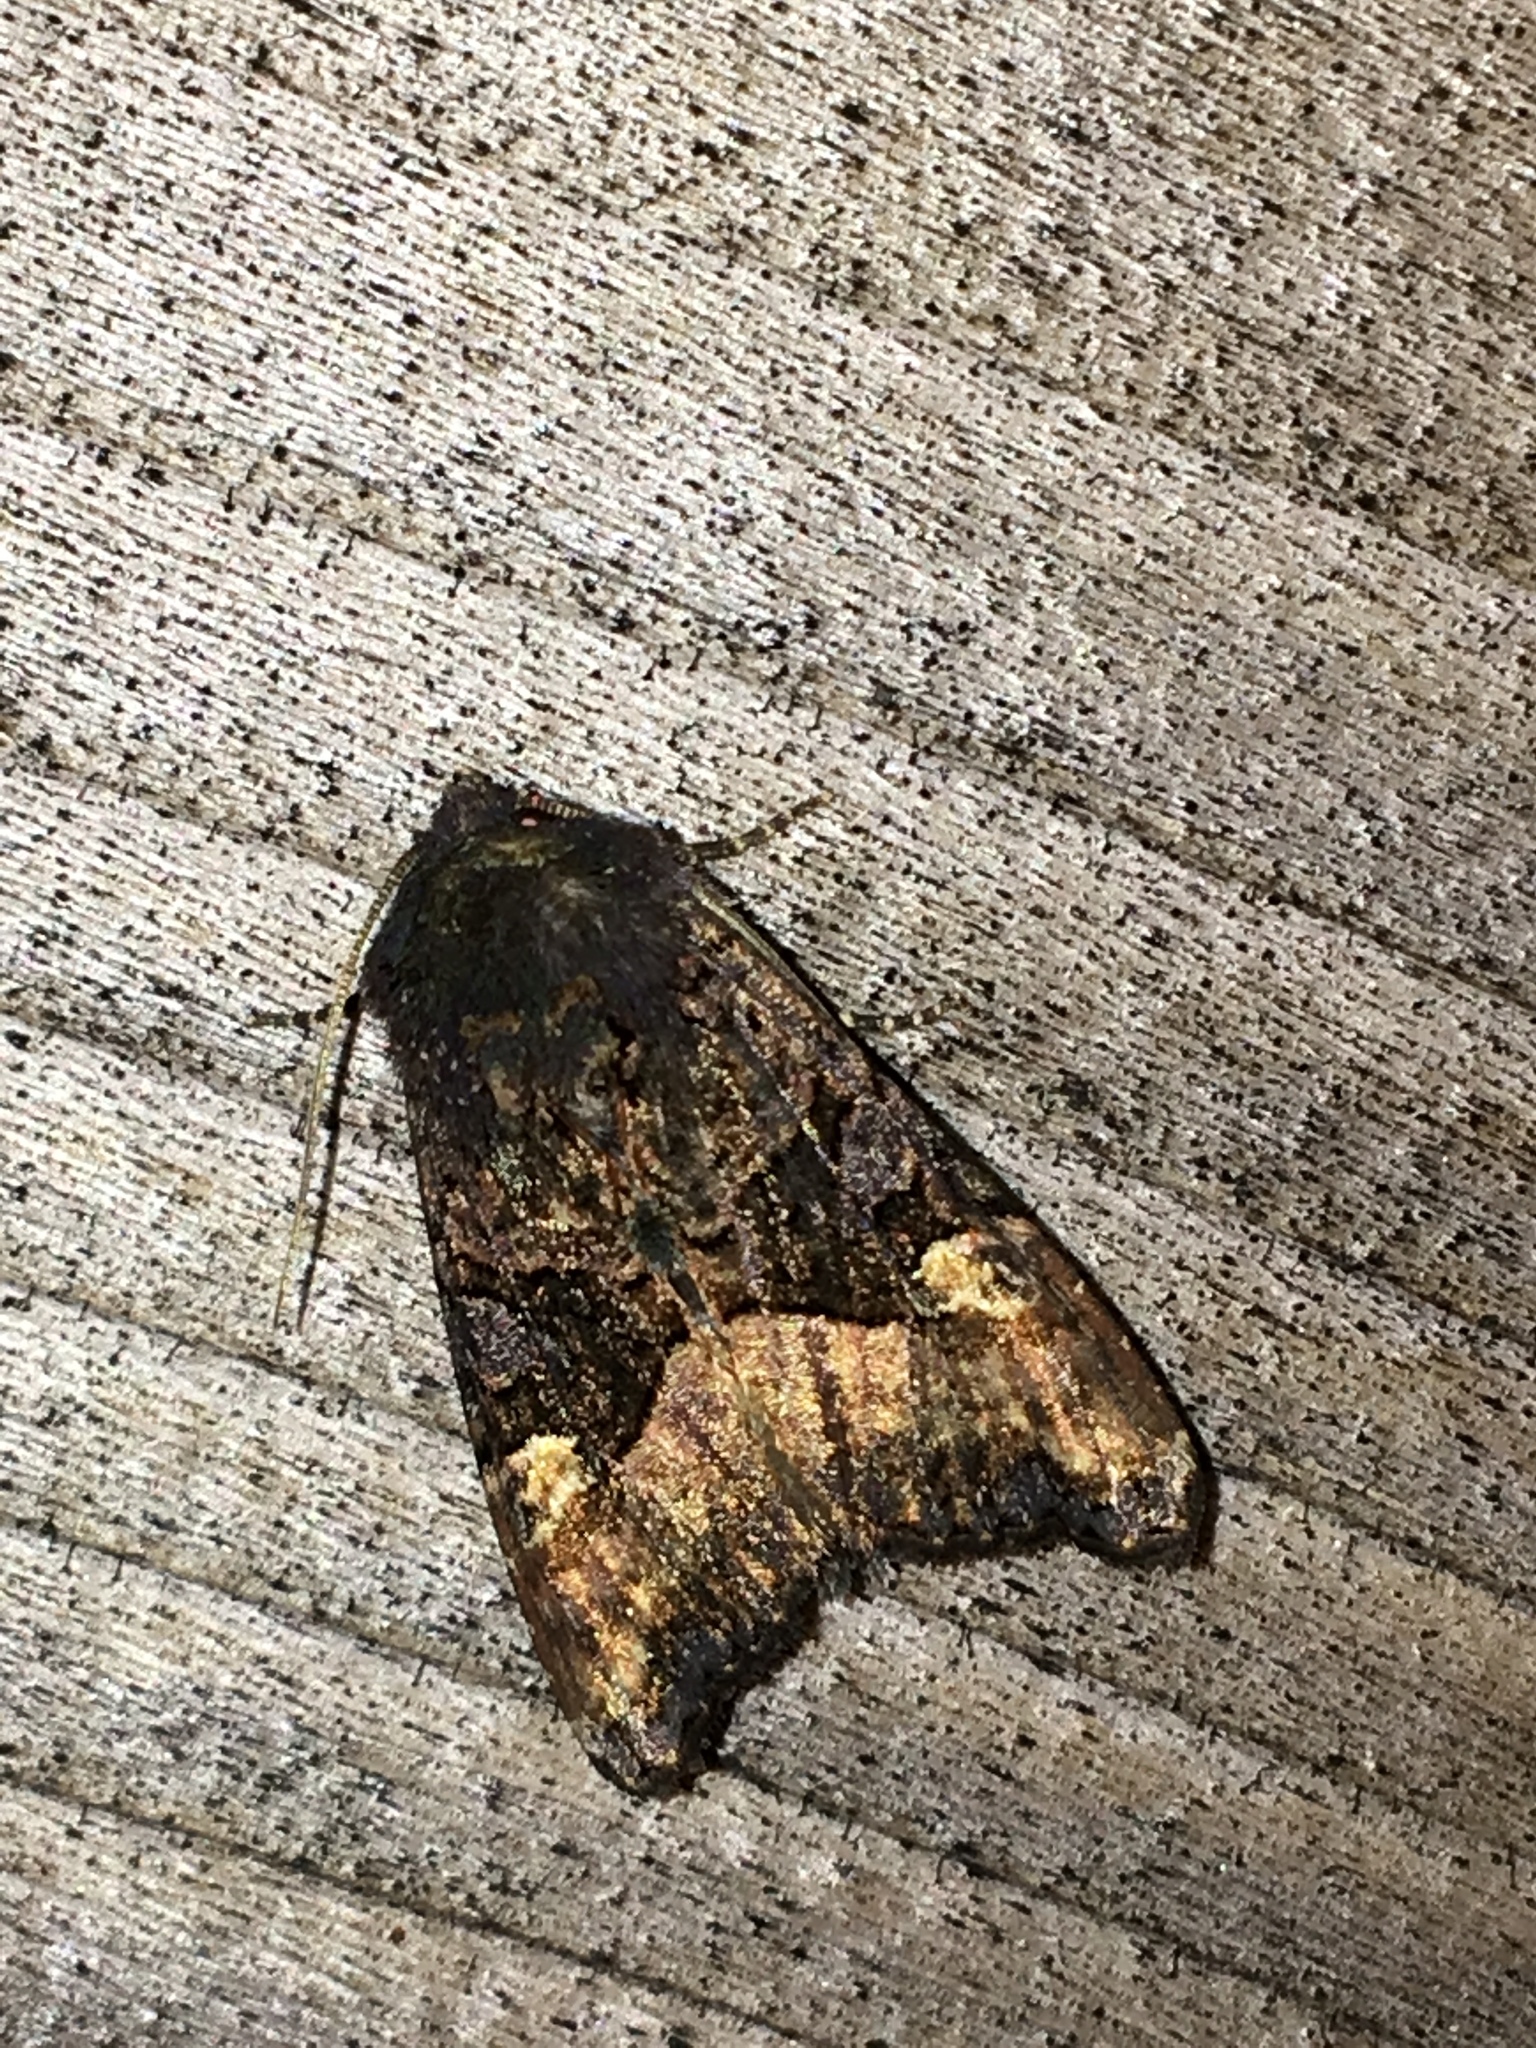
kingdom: Animalia
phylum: Arthropoda
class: Insecta
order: Lepidoptera
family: Noctuidae
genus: Euplexia
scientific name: Euplexia benesimilis
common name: American angle shades
